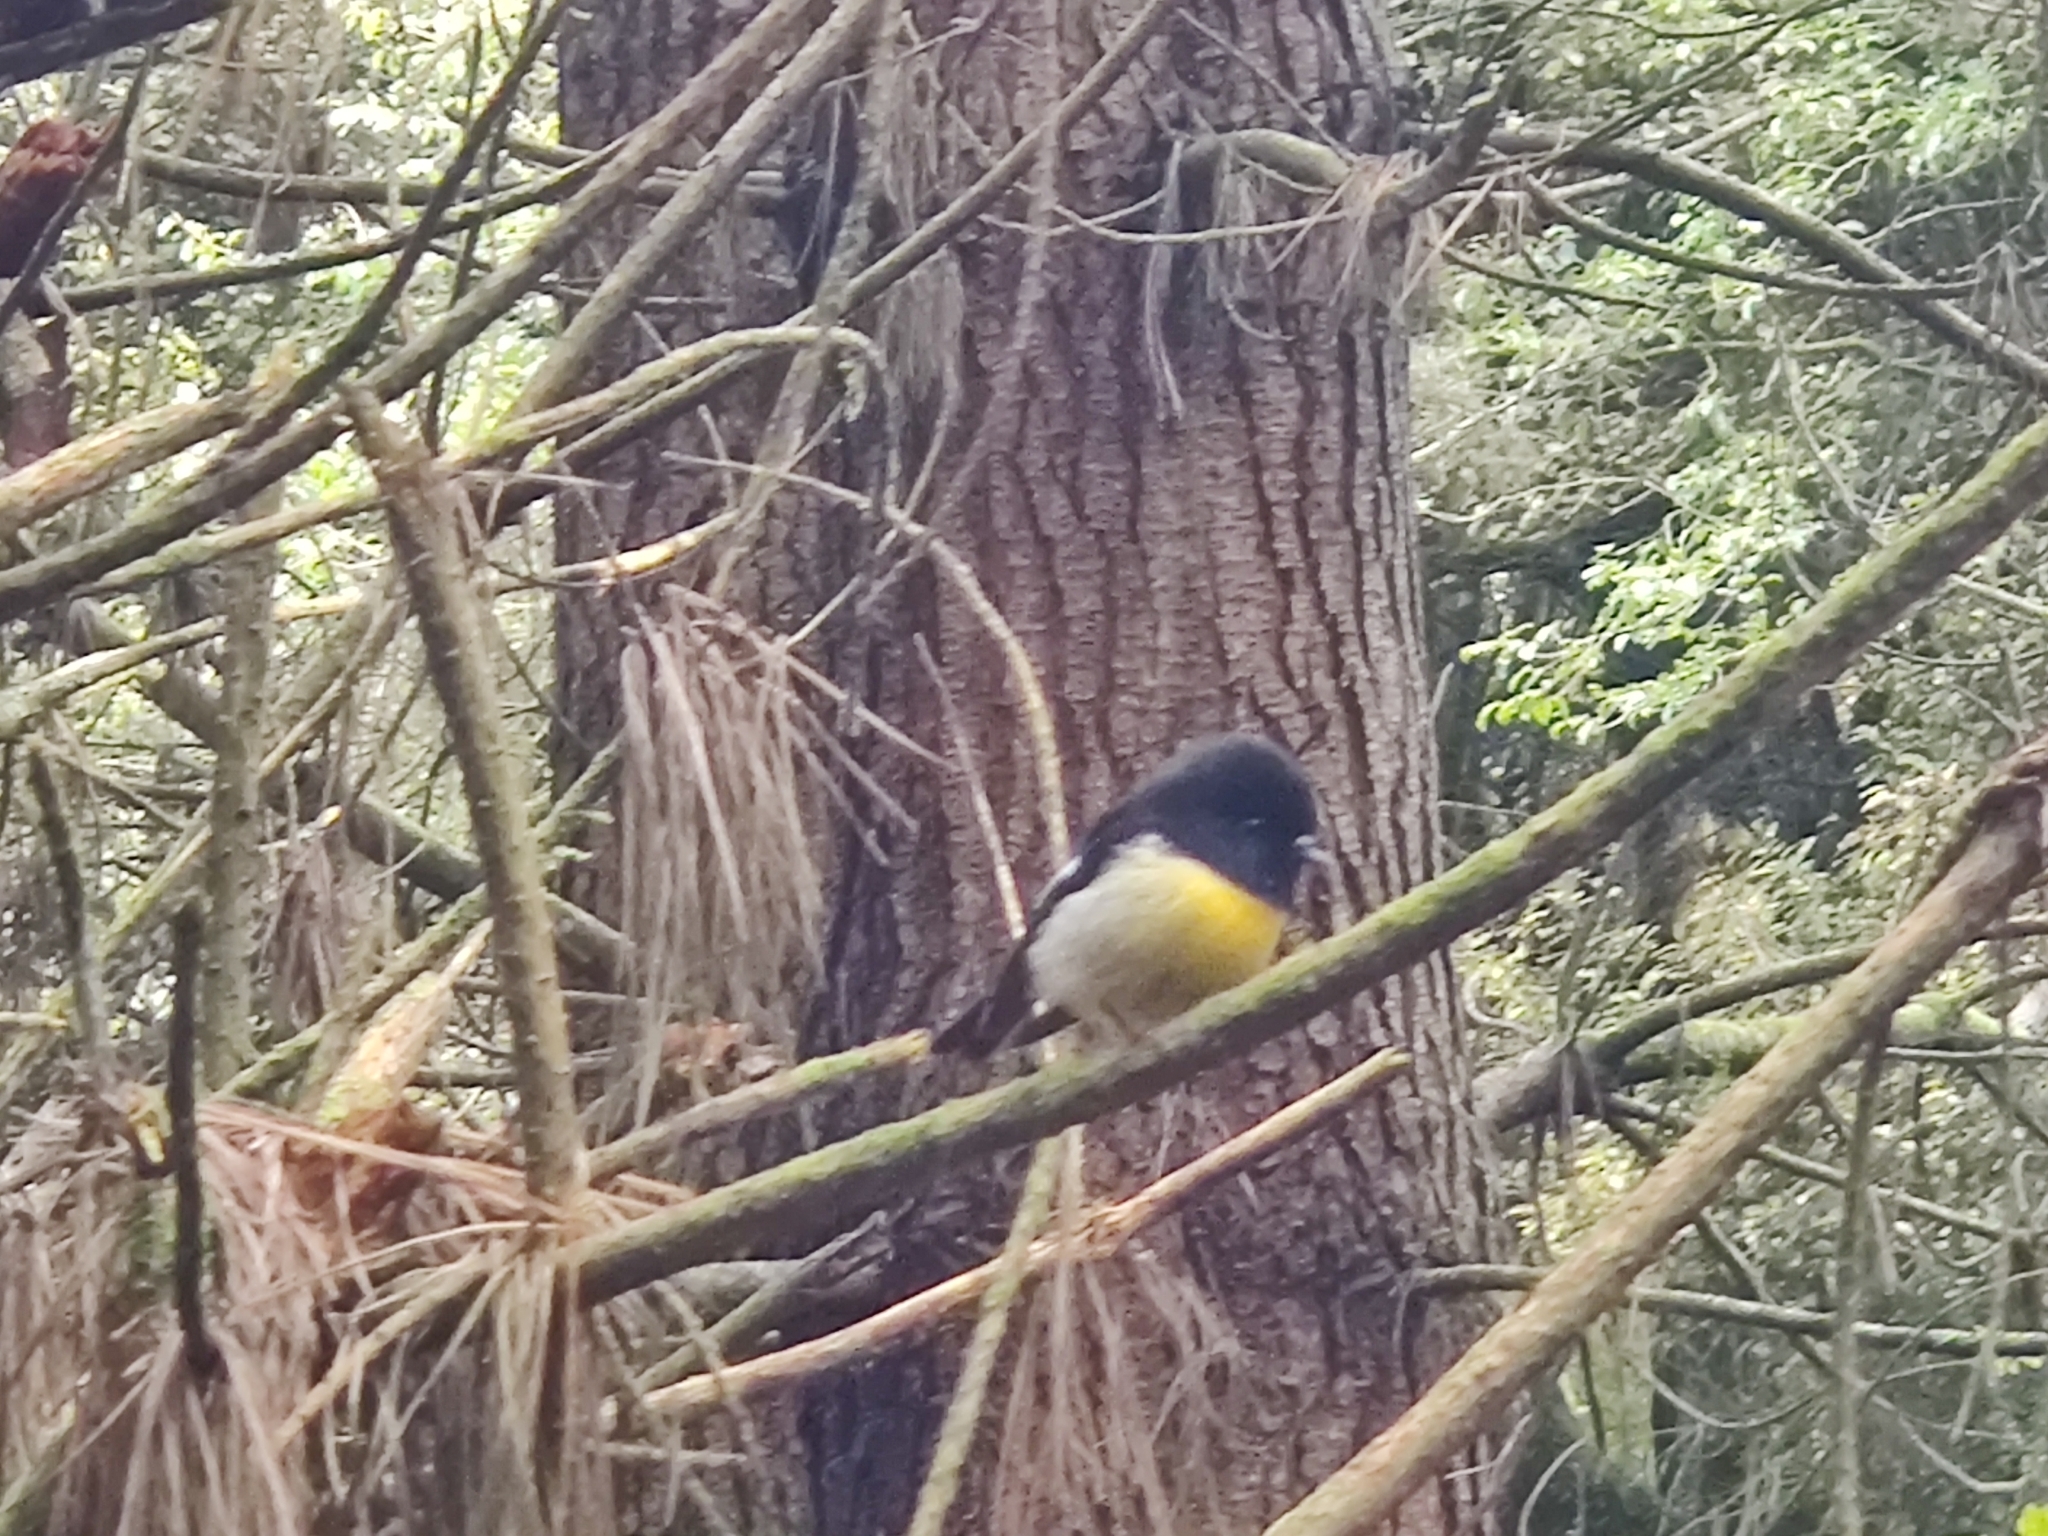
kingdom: Animalia
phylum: Chordata
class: Aves
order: Passeriformes
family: Petroicidae
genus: Petroica
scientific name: Petroica macrocephala
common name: Tomtit
